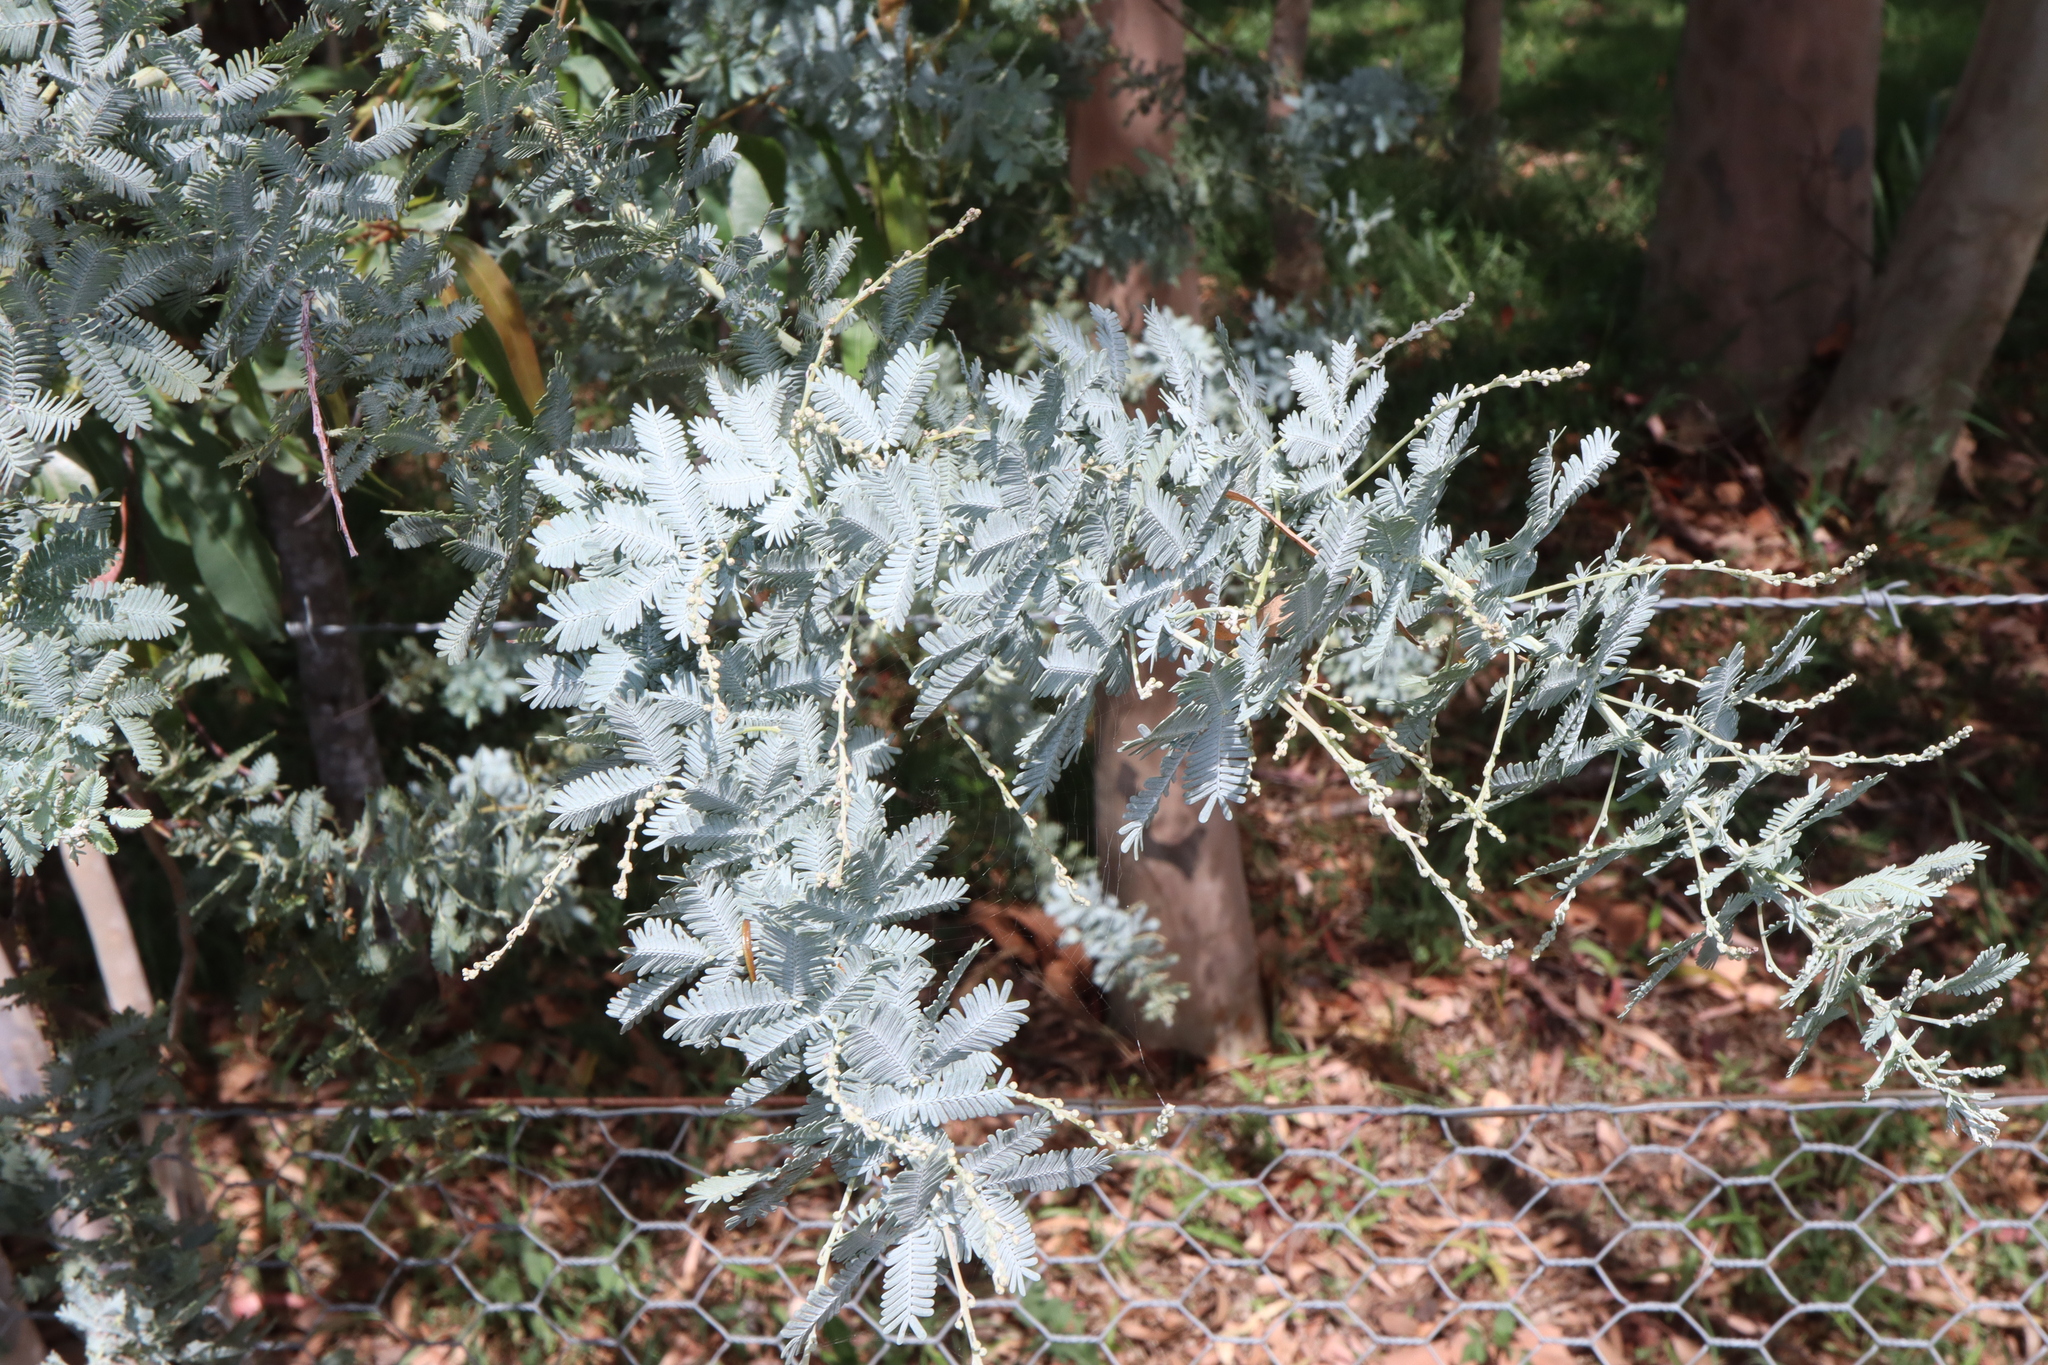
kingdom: Plantae
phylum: Tracheophyta
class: Magnoliopsida
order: Fabales
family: Fabaceae
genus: Acacia
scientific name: Acacia baileyana
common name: Cootamundra wattle
